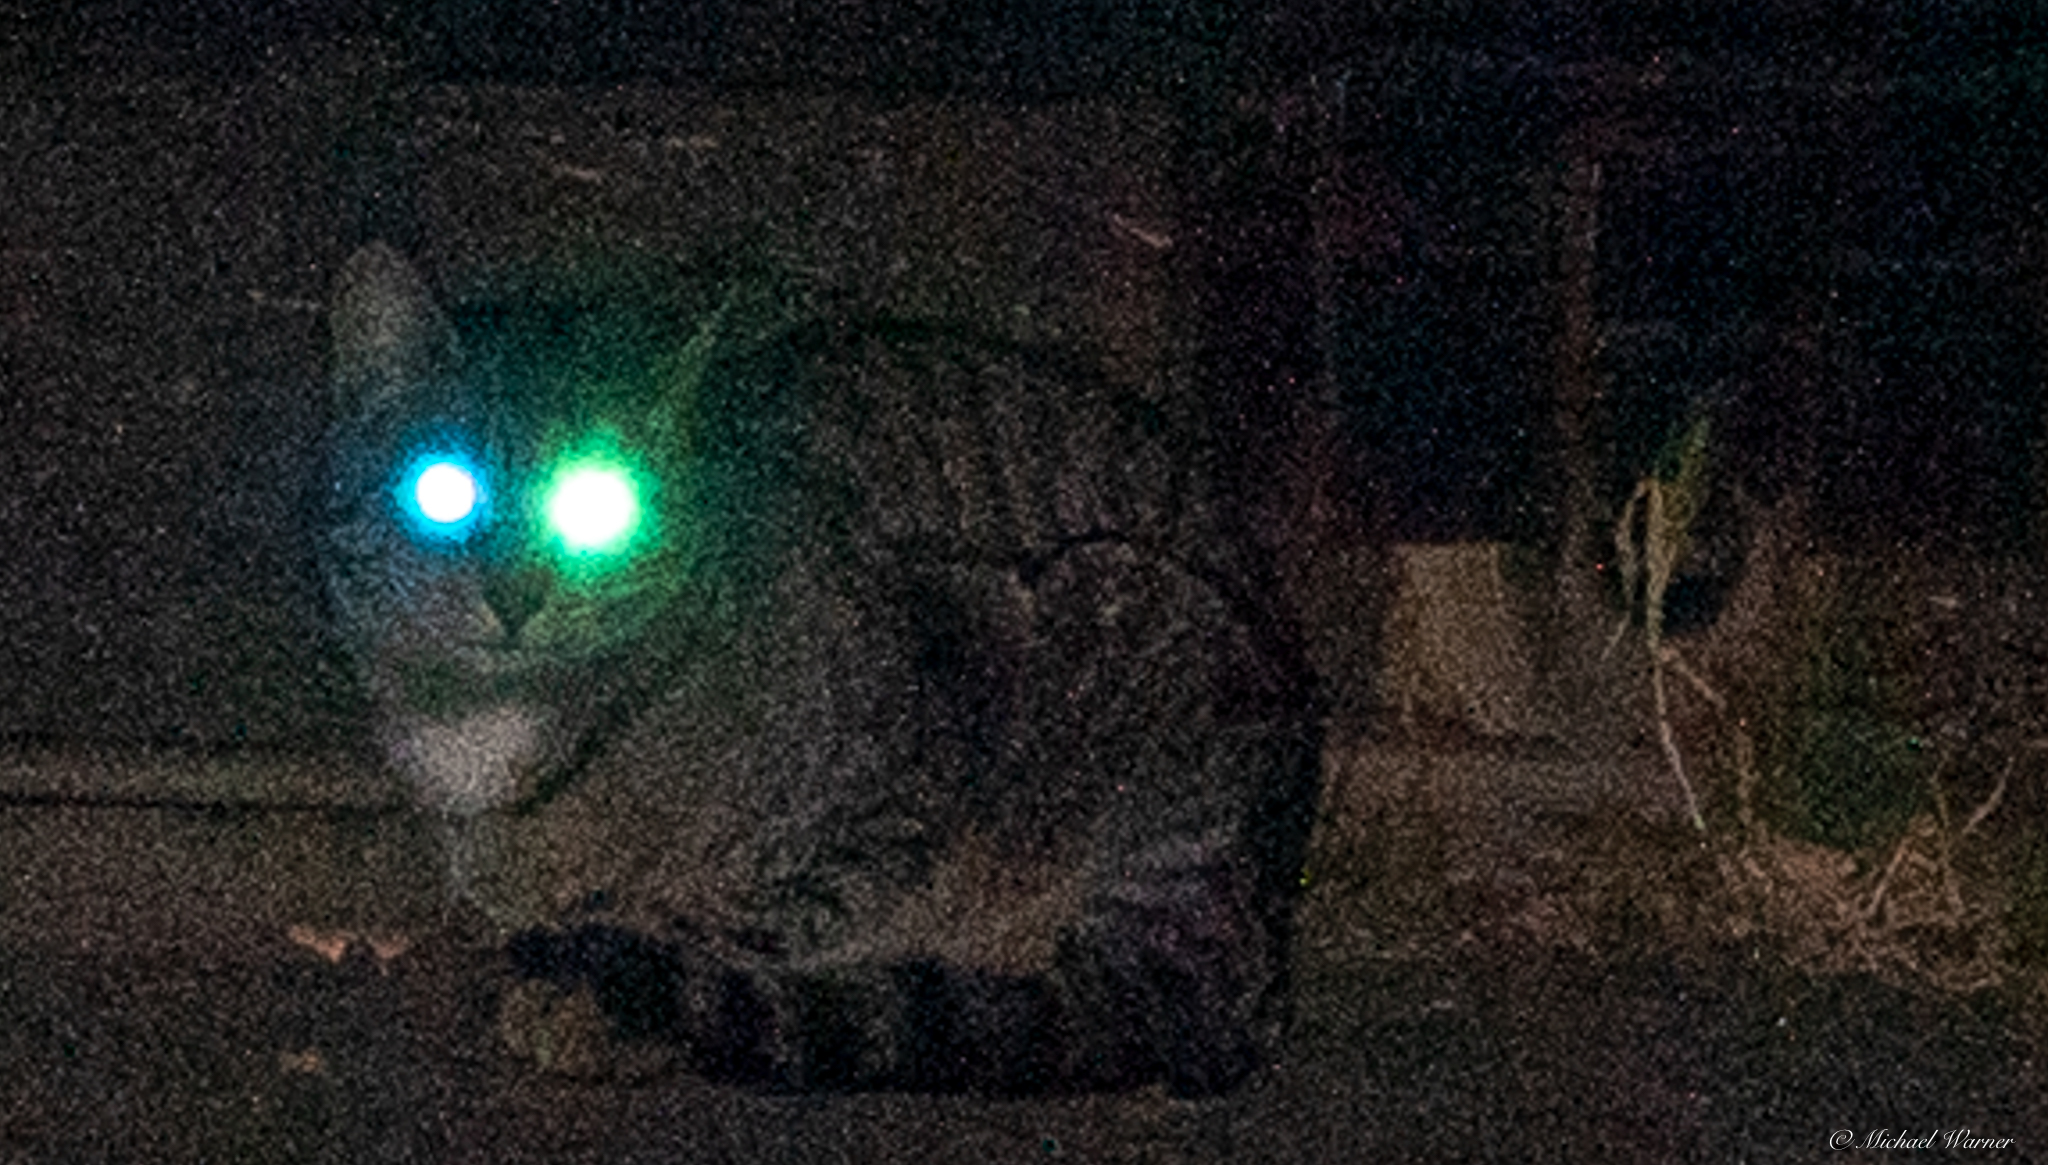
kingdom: Animalia
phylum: Chordata
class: Mammalia
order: Carnivora
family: Felidae
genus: Felis
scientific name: Felis catus
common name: Domestic cat
